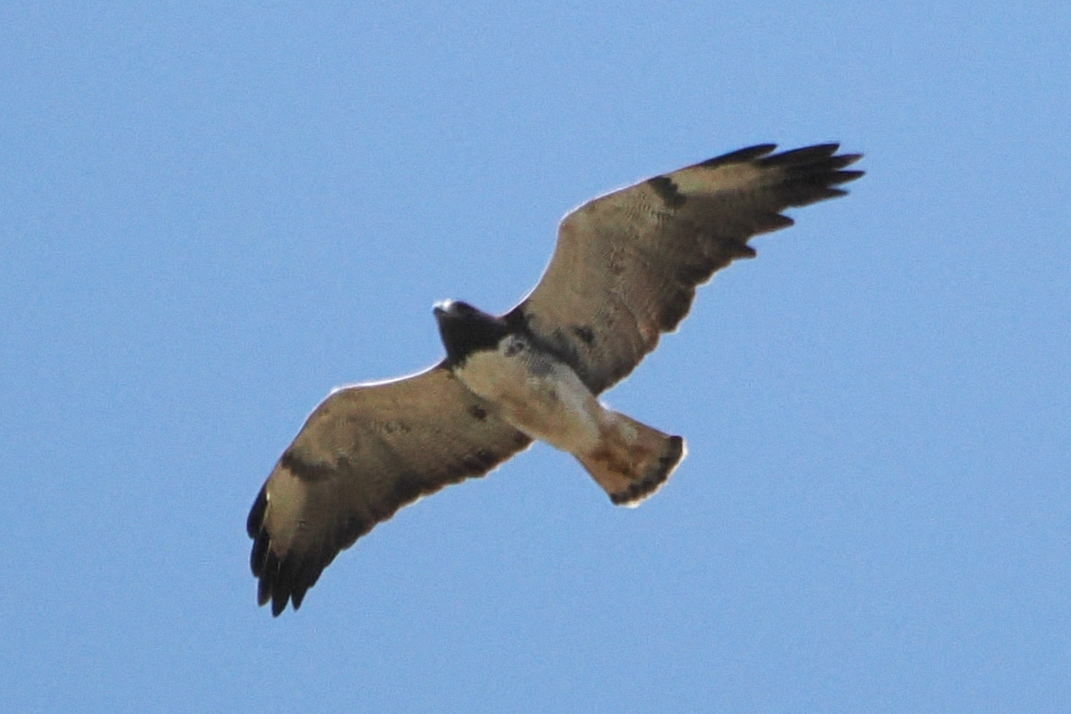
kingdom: Animalia
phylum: Chordata
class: Aves
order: Accipitriformes
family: Accipitridae
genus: Buteo
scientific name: Buteo albicaudatus
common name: White-tailed hawk
